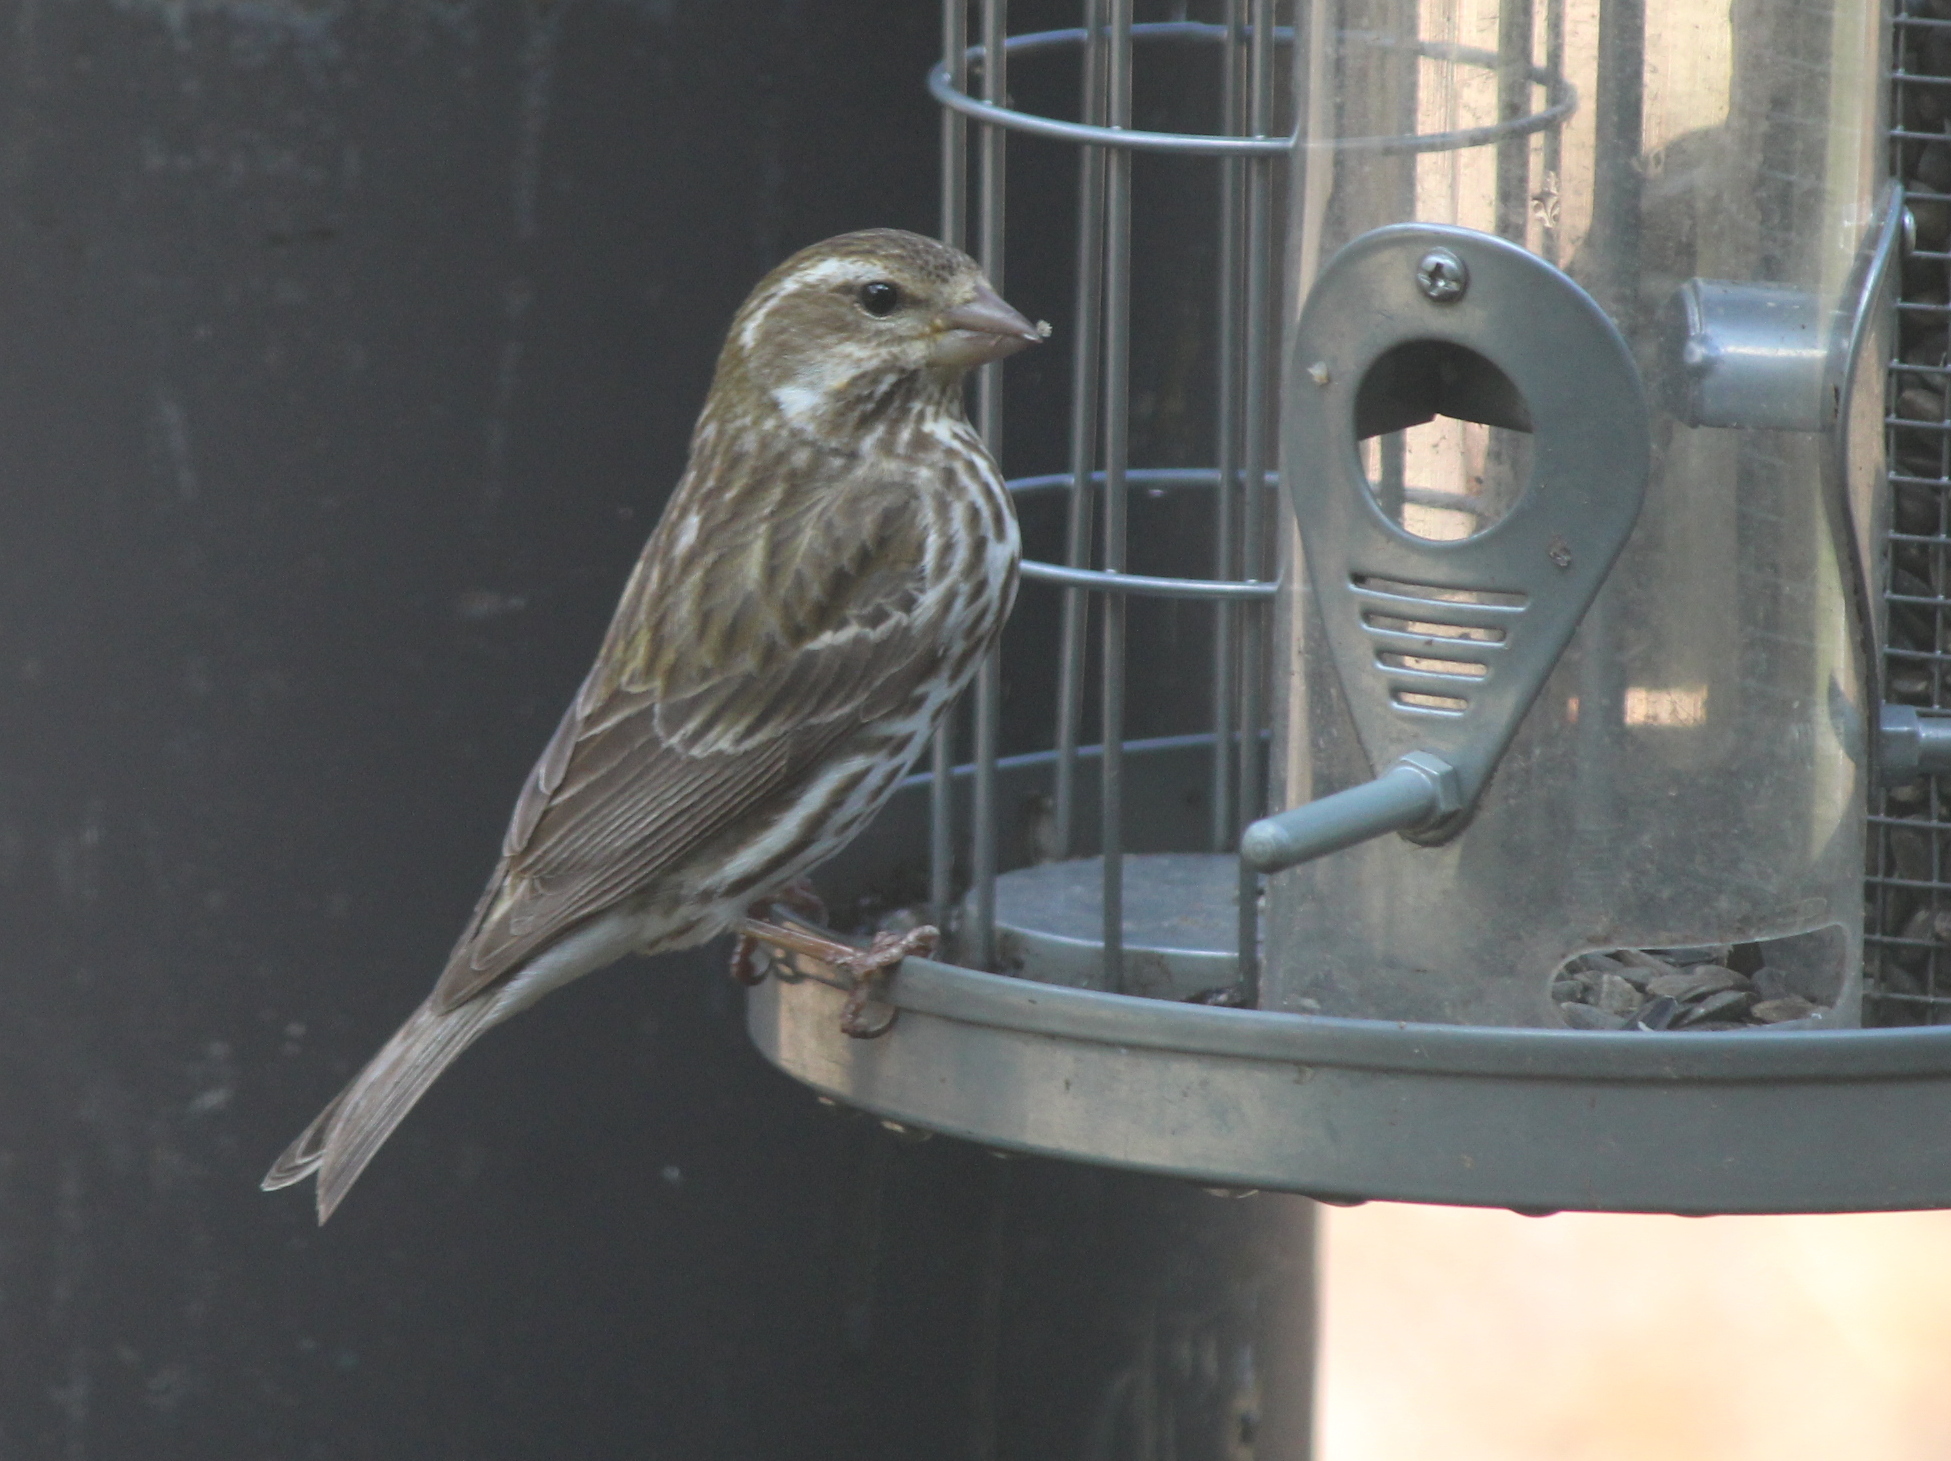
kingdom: Animalia
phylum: Chordata
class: Aves
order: Passeriformes
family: Fringillidae
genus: Haemorhous
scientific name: Haemorhous purpureus
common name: Purple finch
